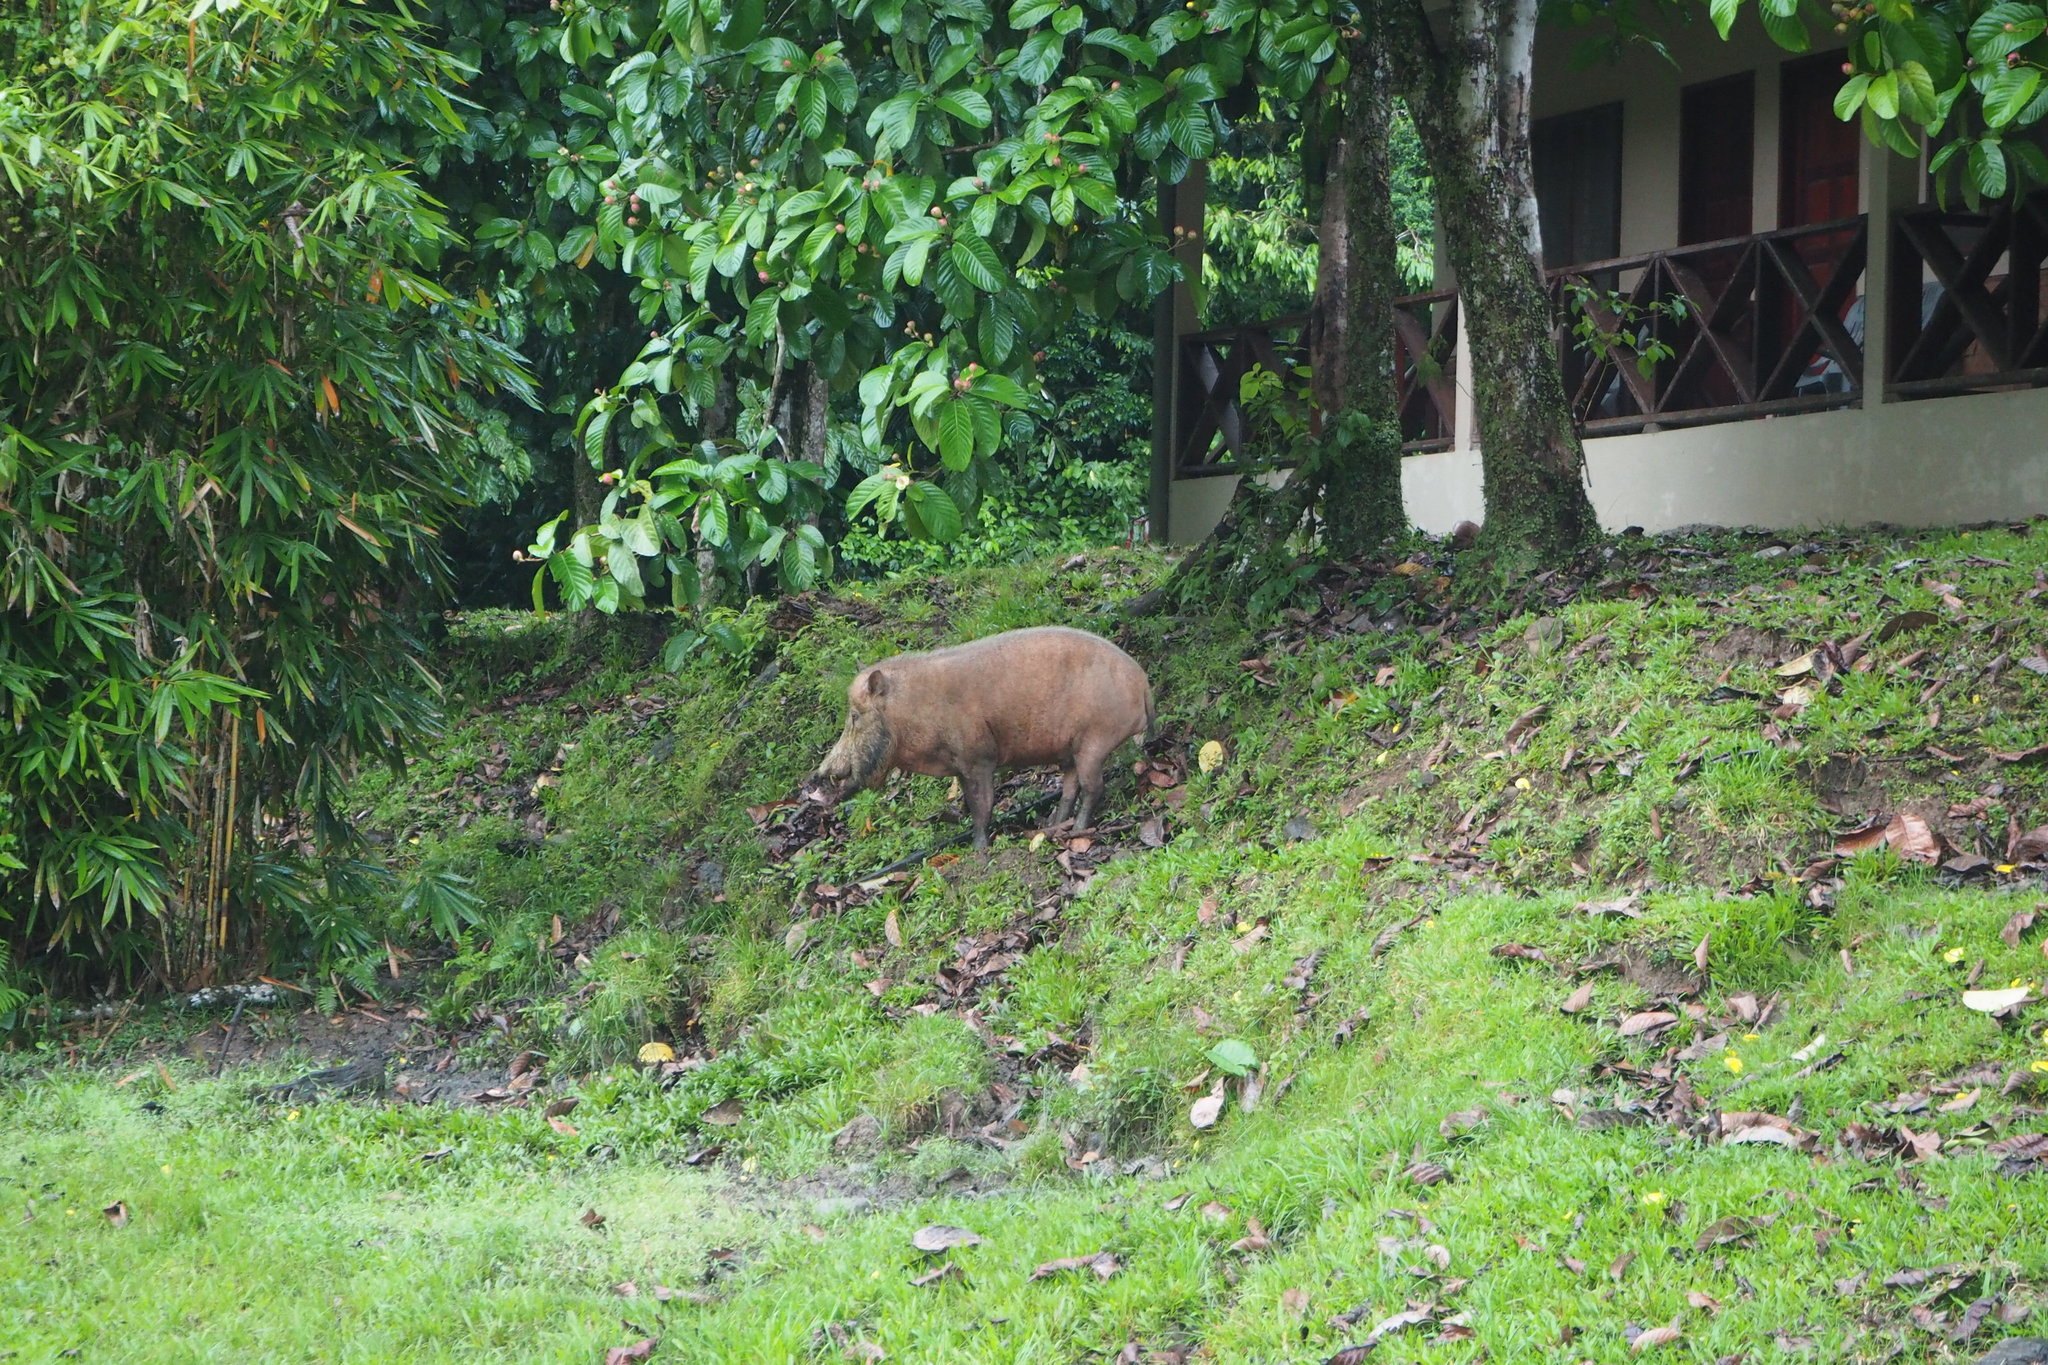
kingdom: Animalia
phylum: Chordata
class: Mammalia
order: Artiodactyla
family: Suidae
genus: Sus
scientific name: Sus barbatus
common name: Bearded pig
